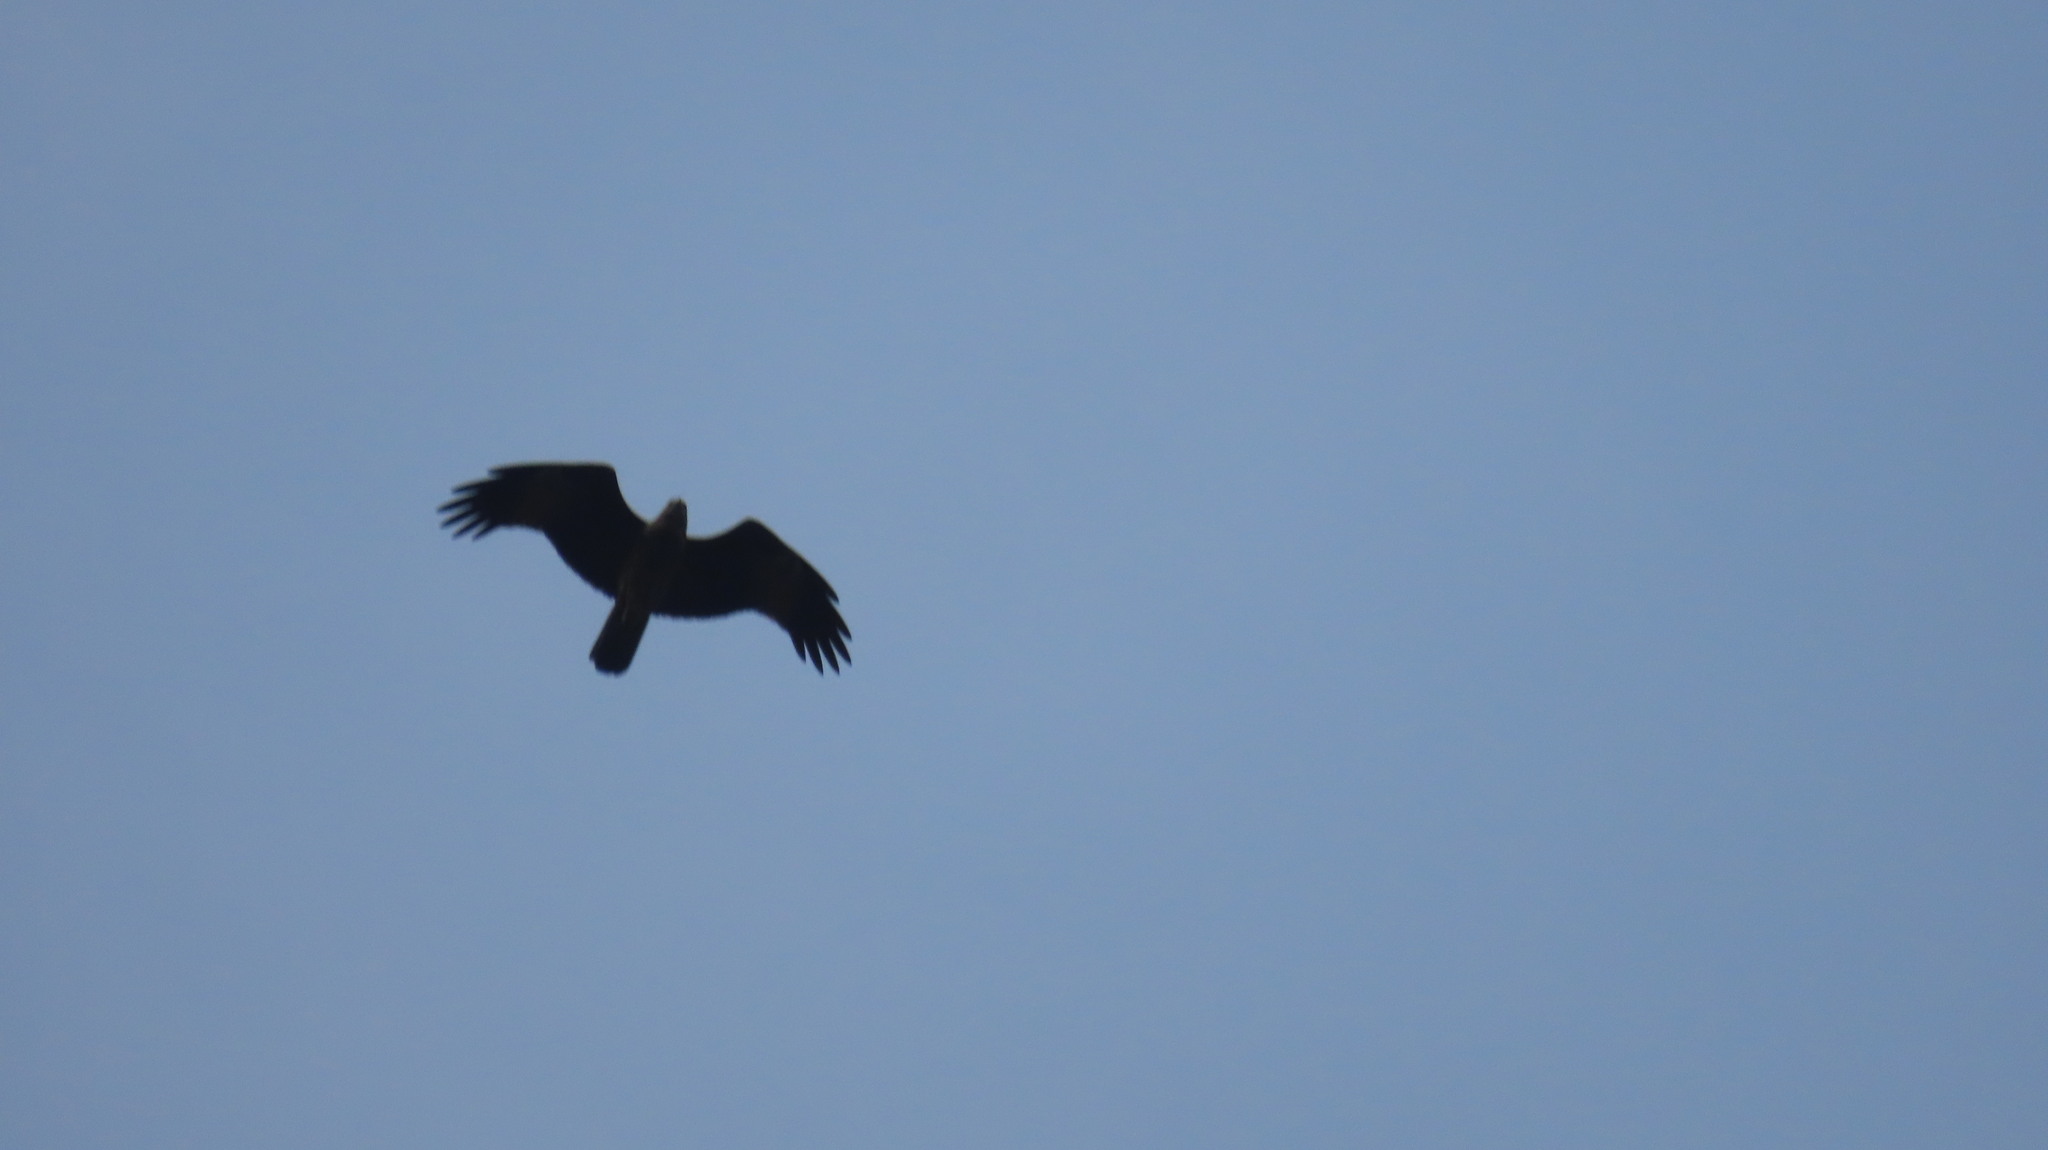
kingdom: Animalia
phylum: Chordata
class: Aves
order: Accipitriformes
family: Accipitridae
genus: Haliastur
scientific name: Haliastur indus
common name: Brahminy kite
